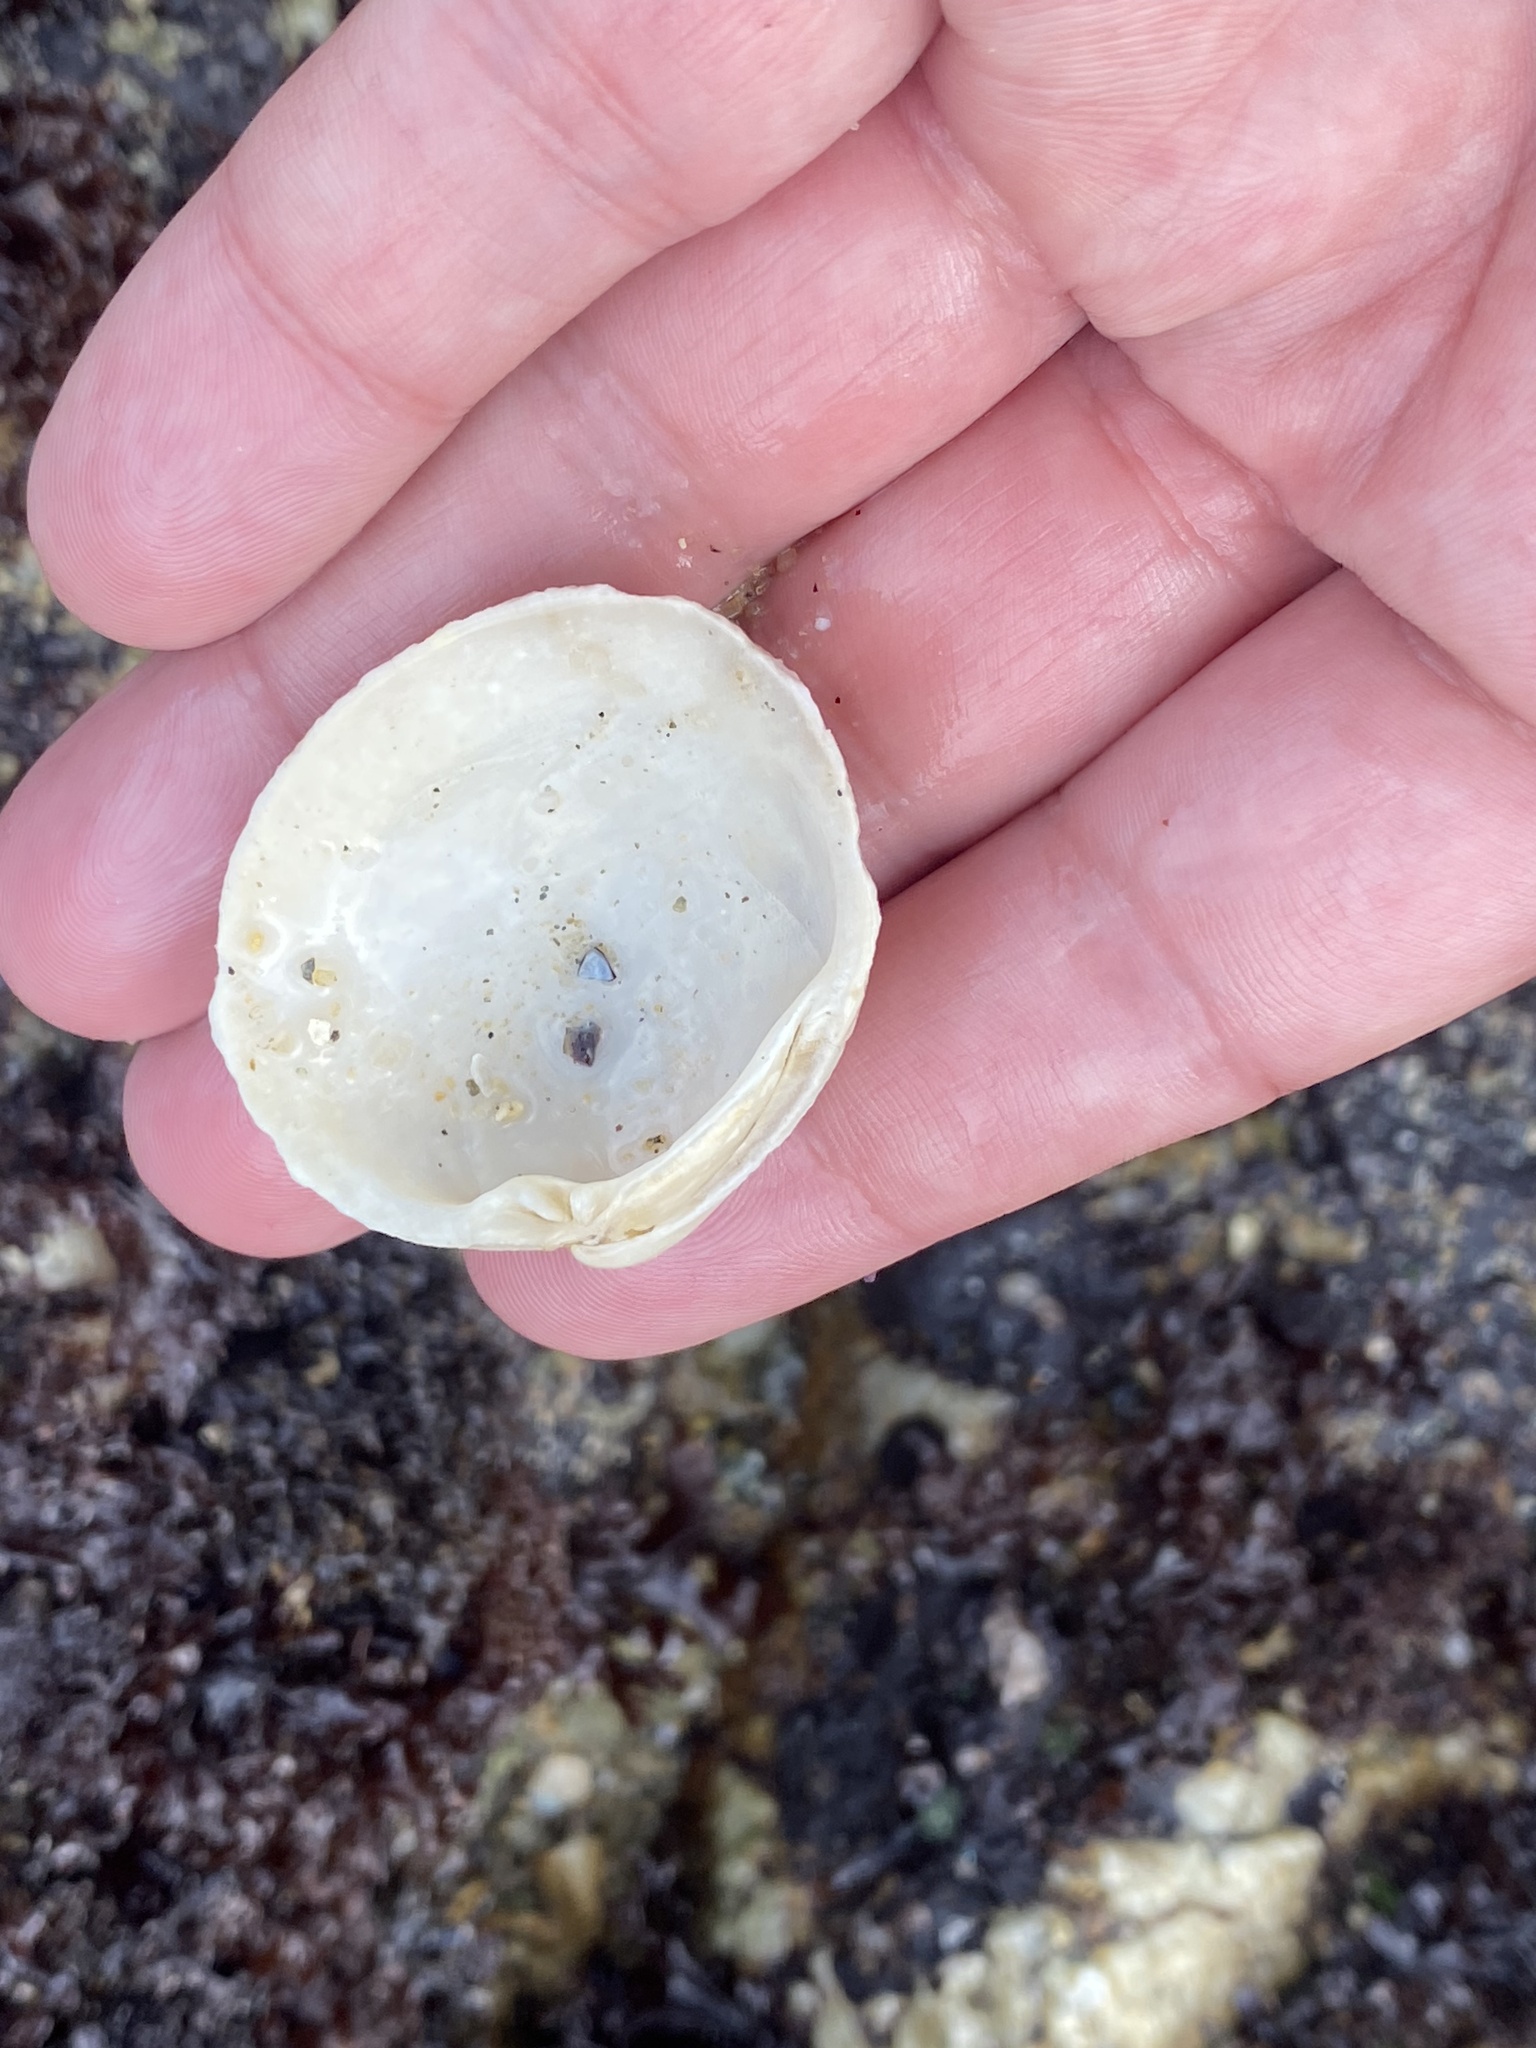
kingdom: Animalia
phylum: Mollusca
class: Bivalvia
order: Venerida
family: Veneridae
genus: Leukoma
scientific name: Leukoma staminea
